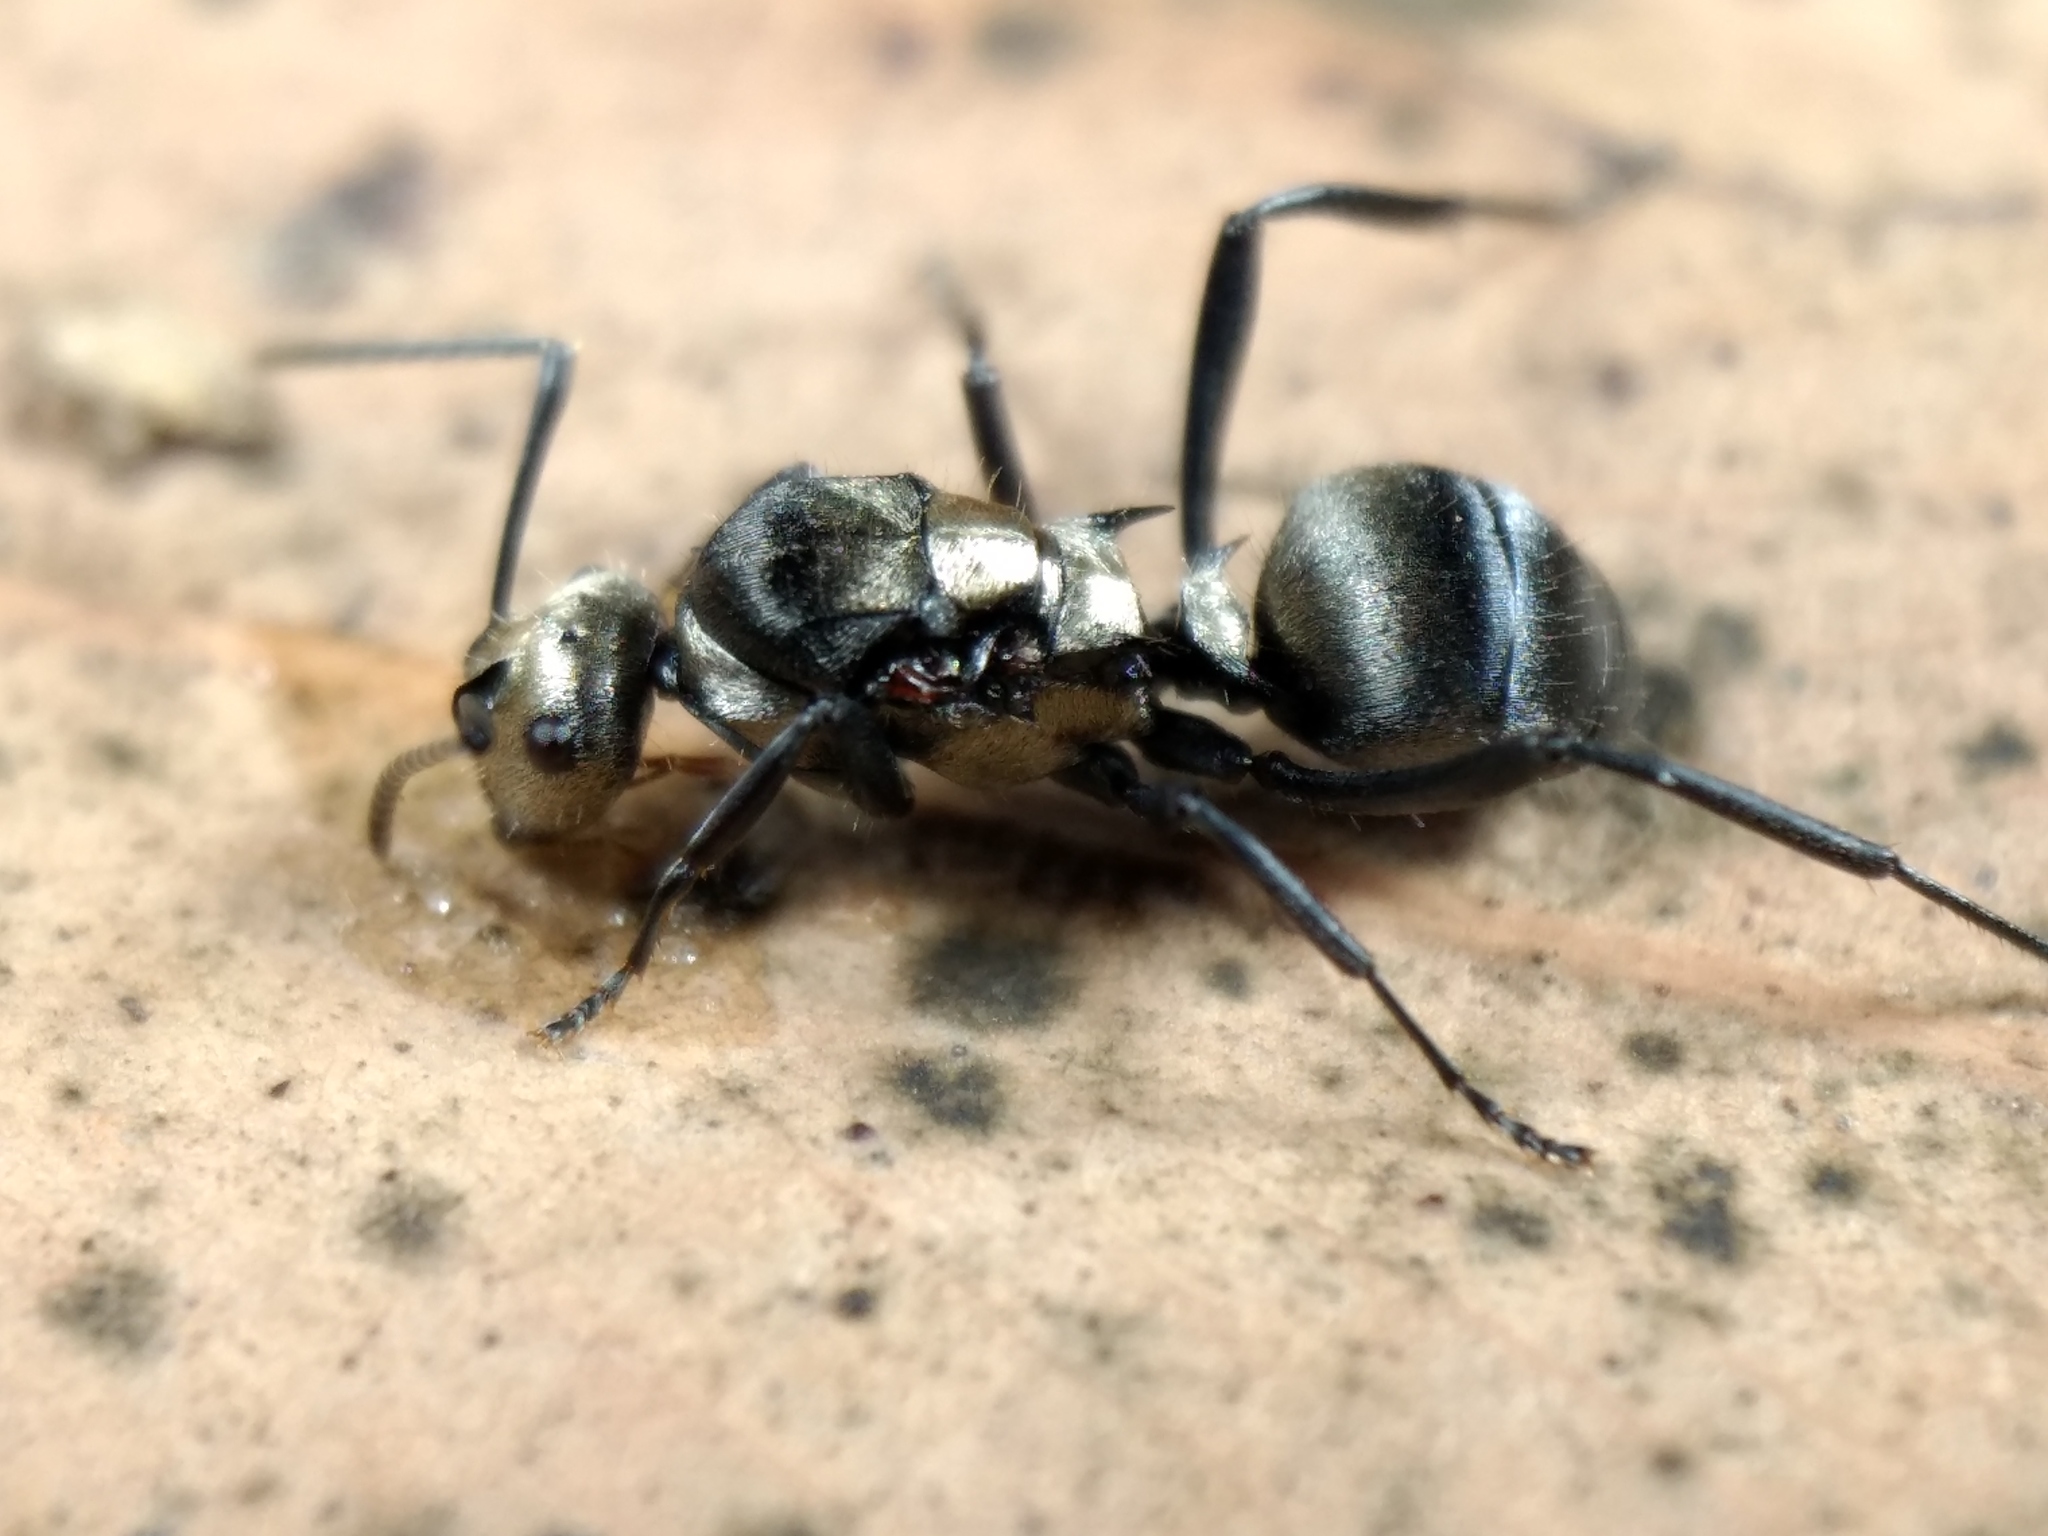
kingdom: Animalia
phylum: Arthropoda
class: Insecta
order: Hymenoptera
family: Formicidae
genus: Polyrhachis
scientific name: Polyrhachis daemeli
